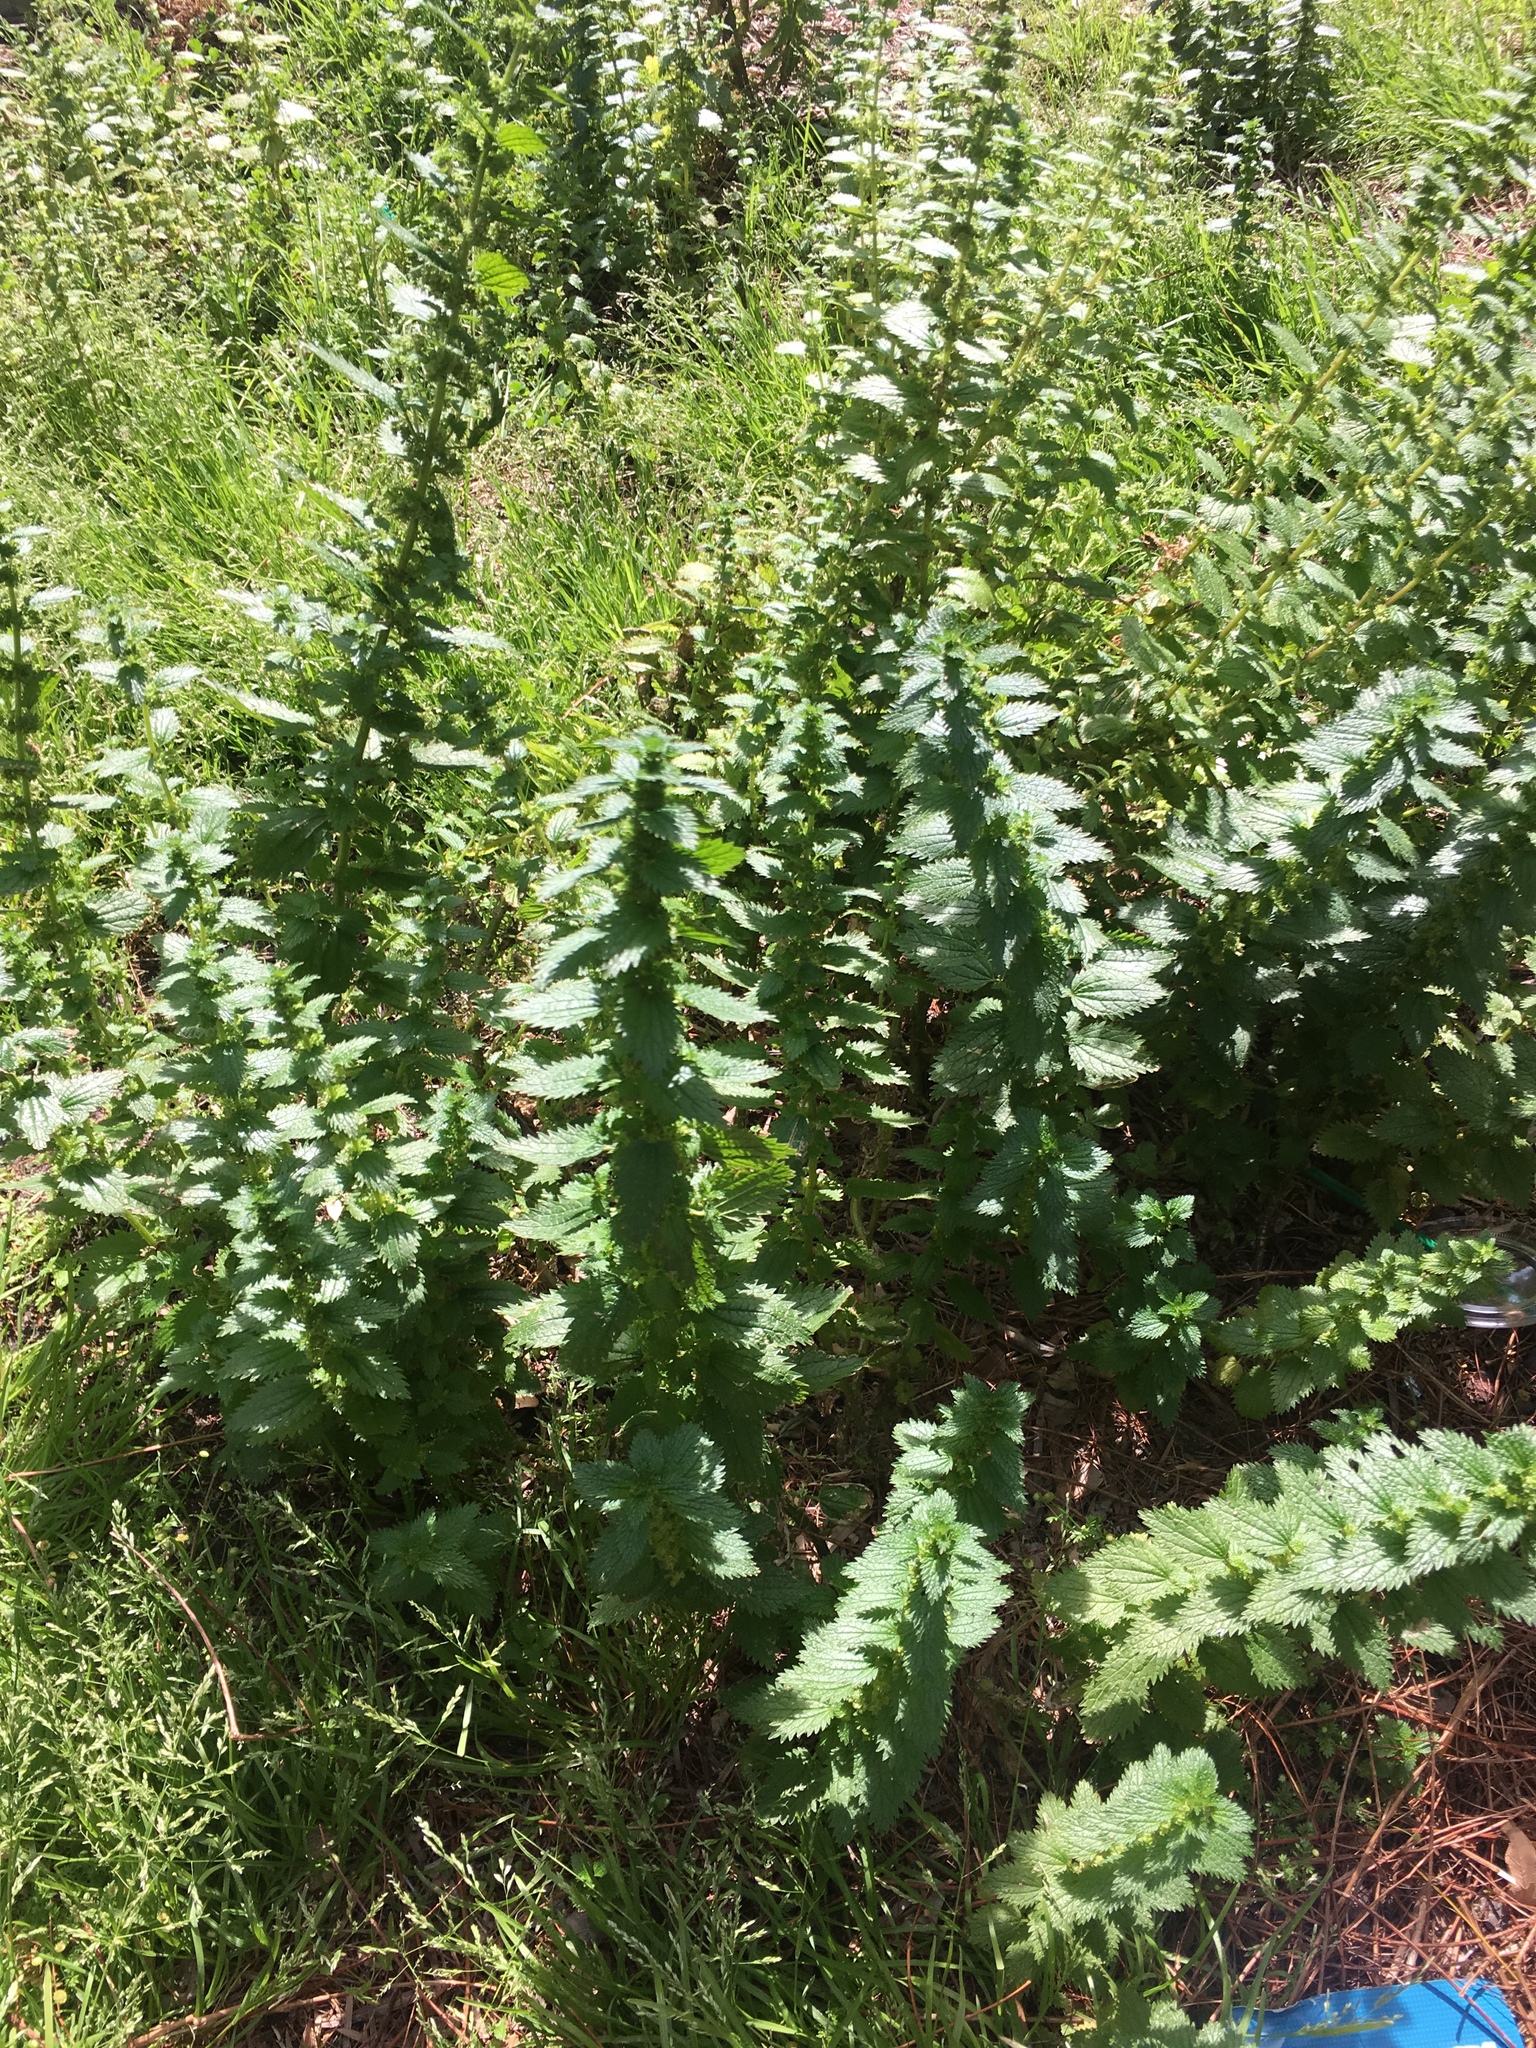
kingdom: Plantae
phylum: Tracheophyta
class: Magnoliopsida
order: Rosales
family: Urticaceae
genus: Urtica
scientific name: Urtica urens
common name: Dwarf nettle
